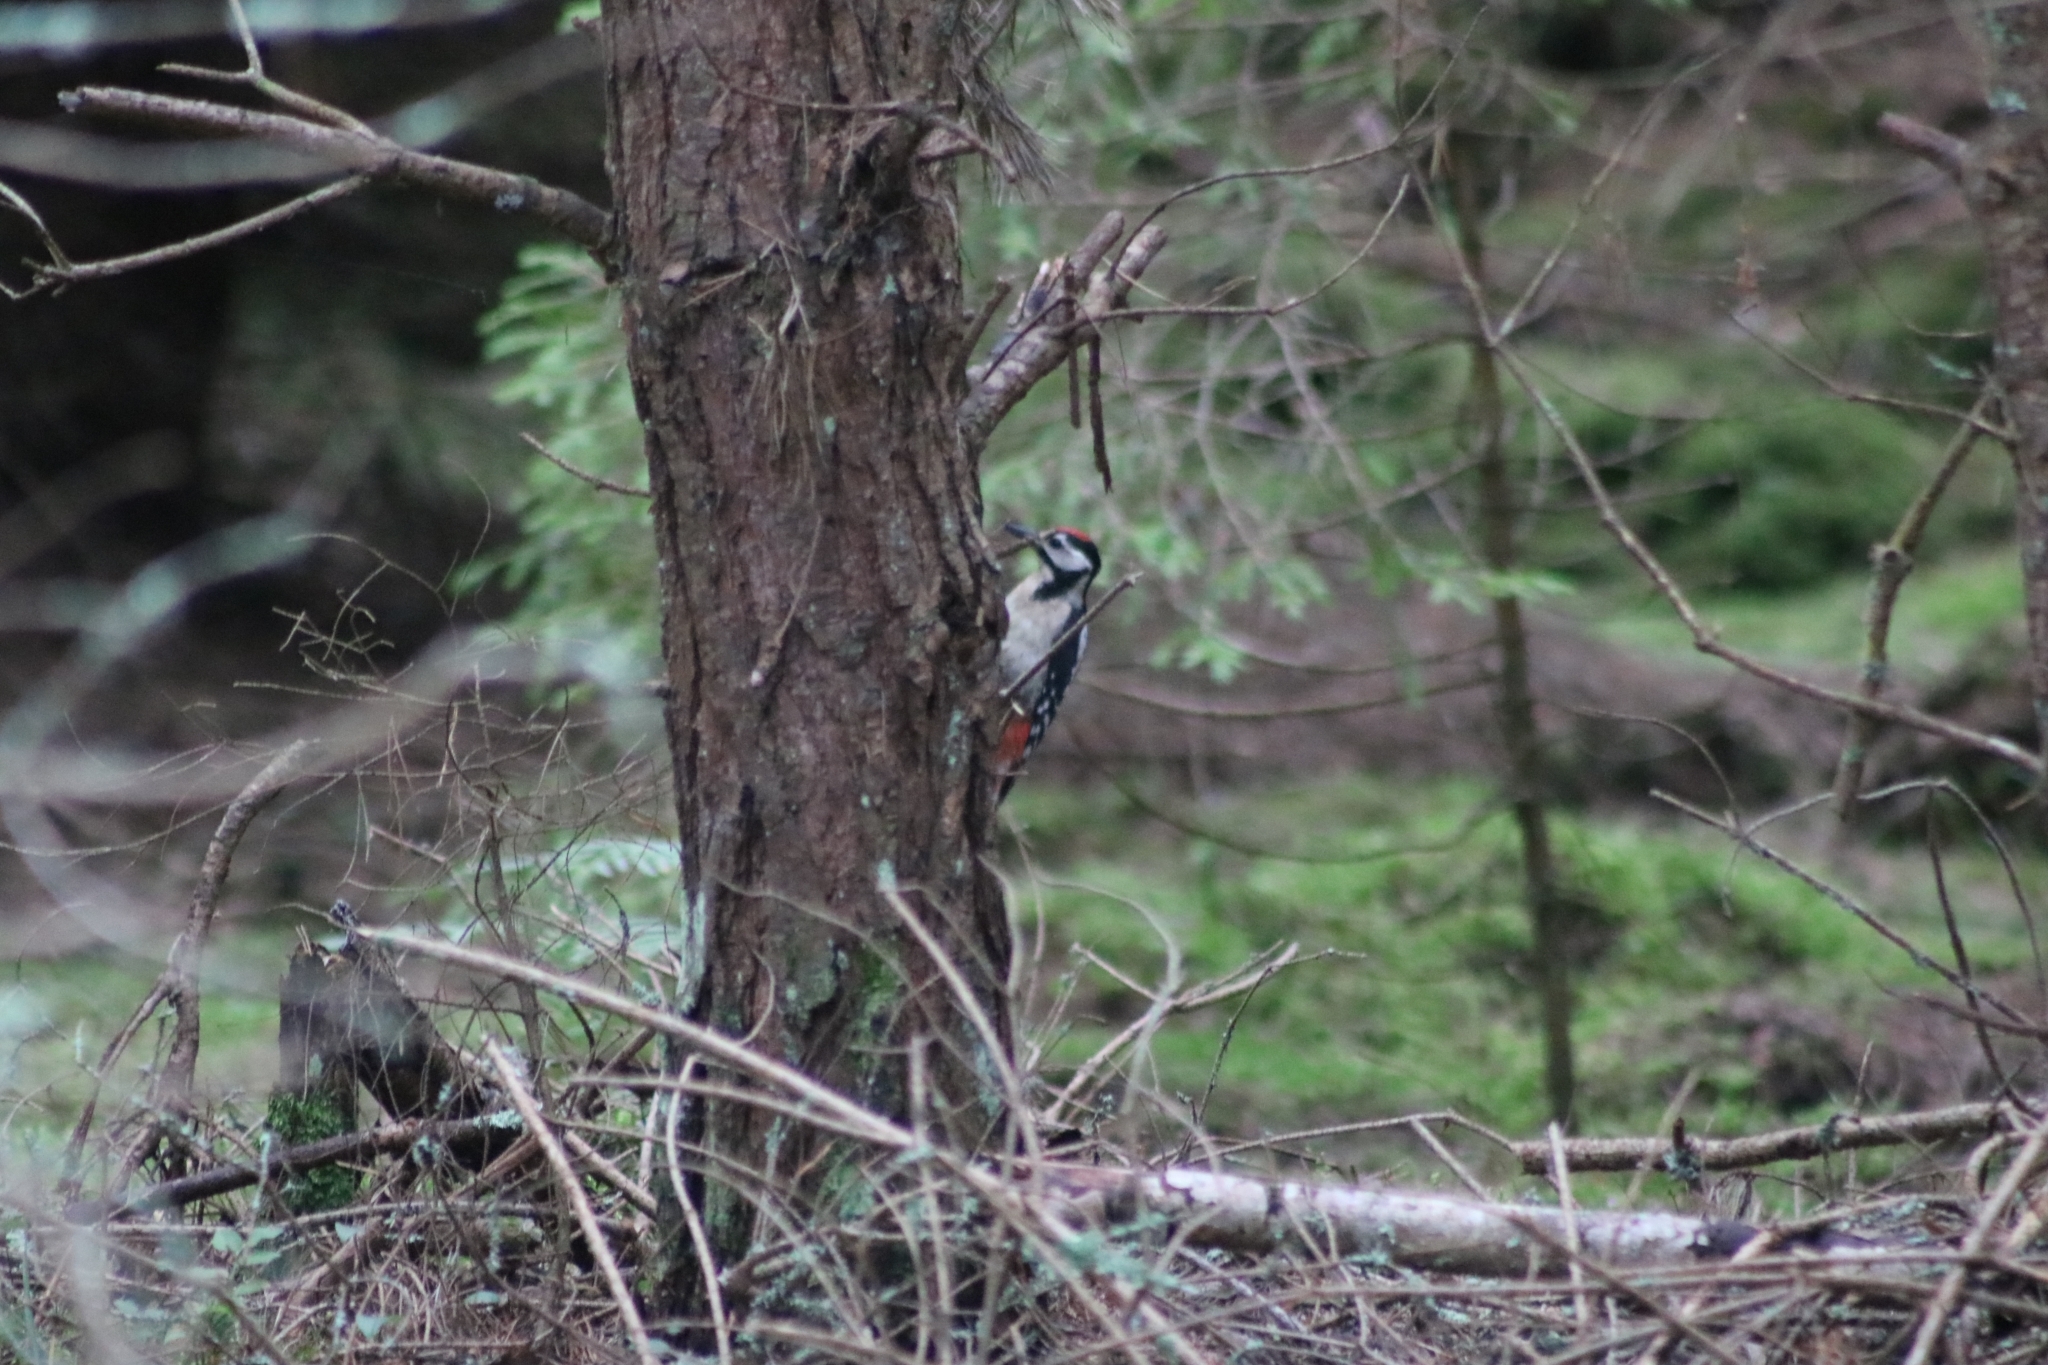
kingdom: Animalia
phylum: Chordata
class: Aves
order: Piciformes
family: Picidae
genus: Dendrocopos
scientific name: Dendrocopos major
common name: Great spotted woodpecker
